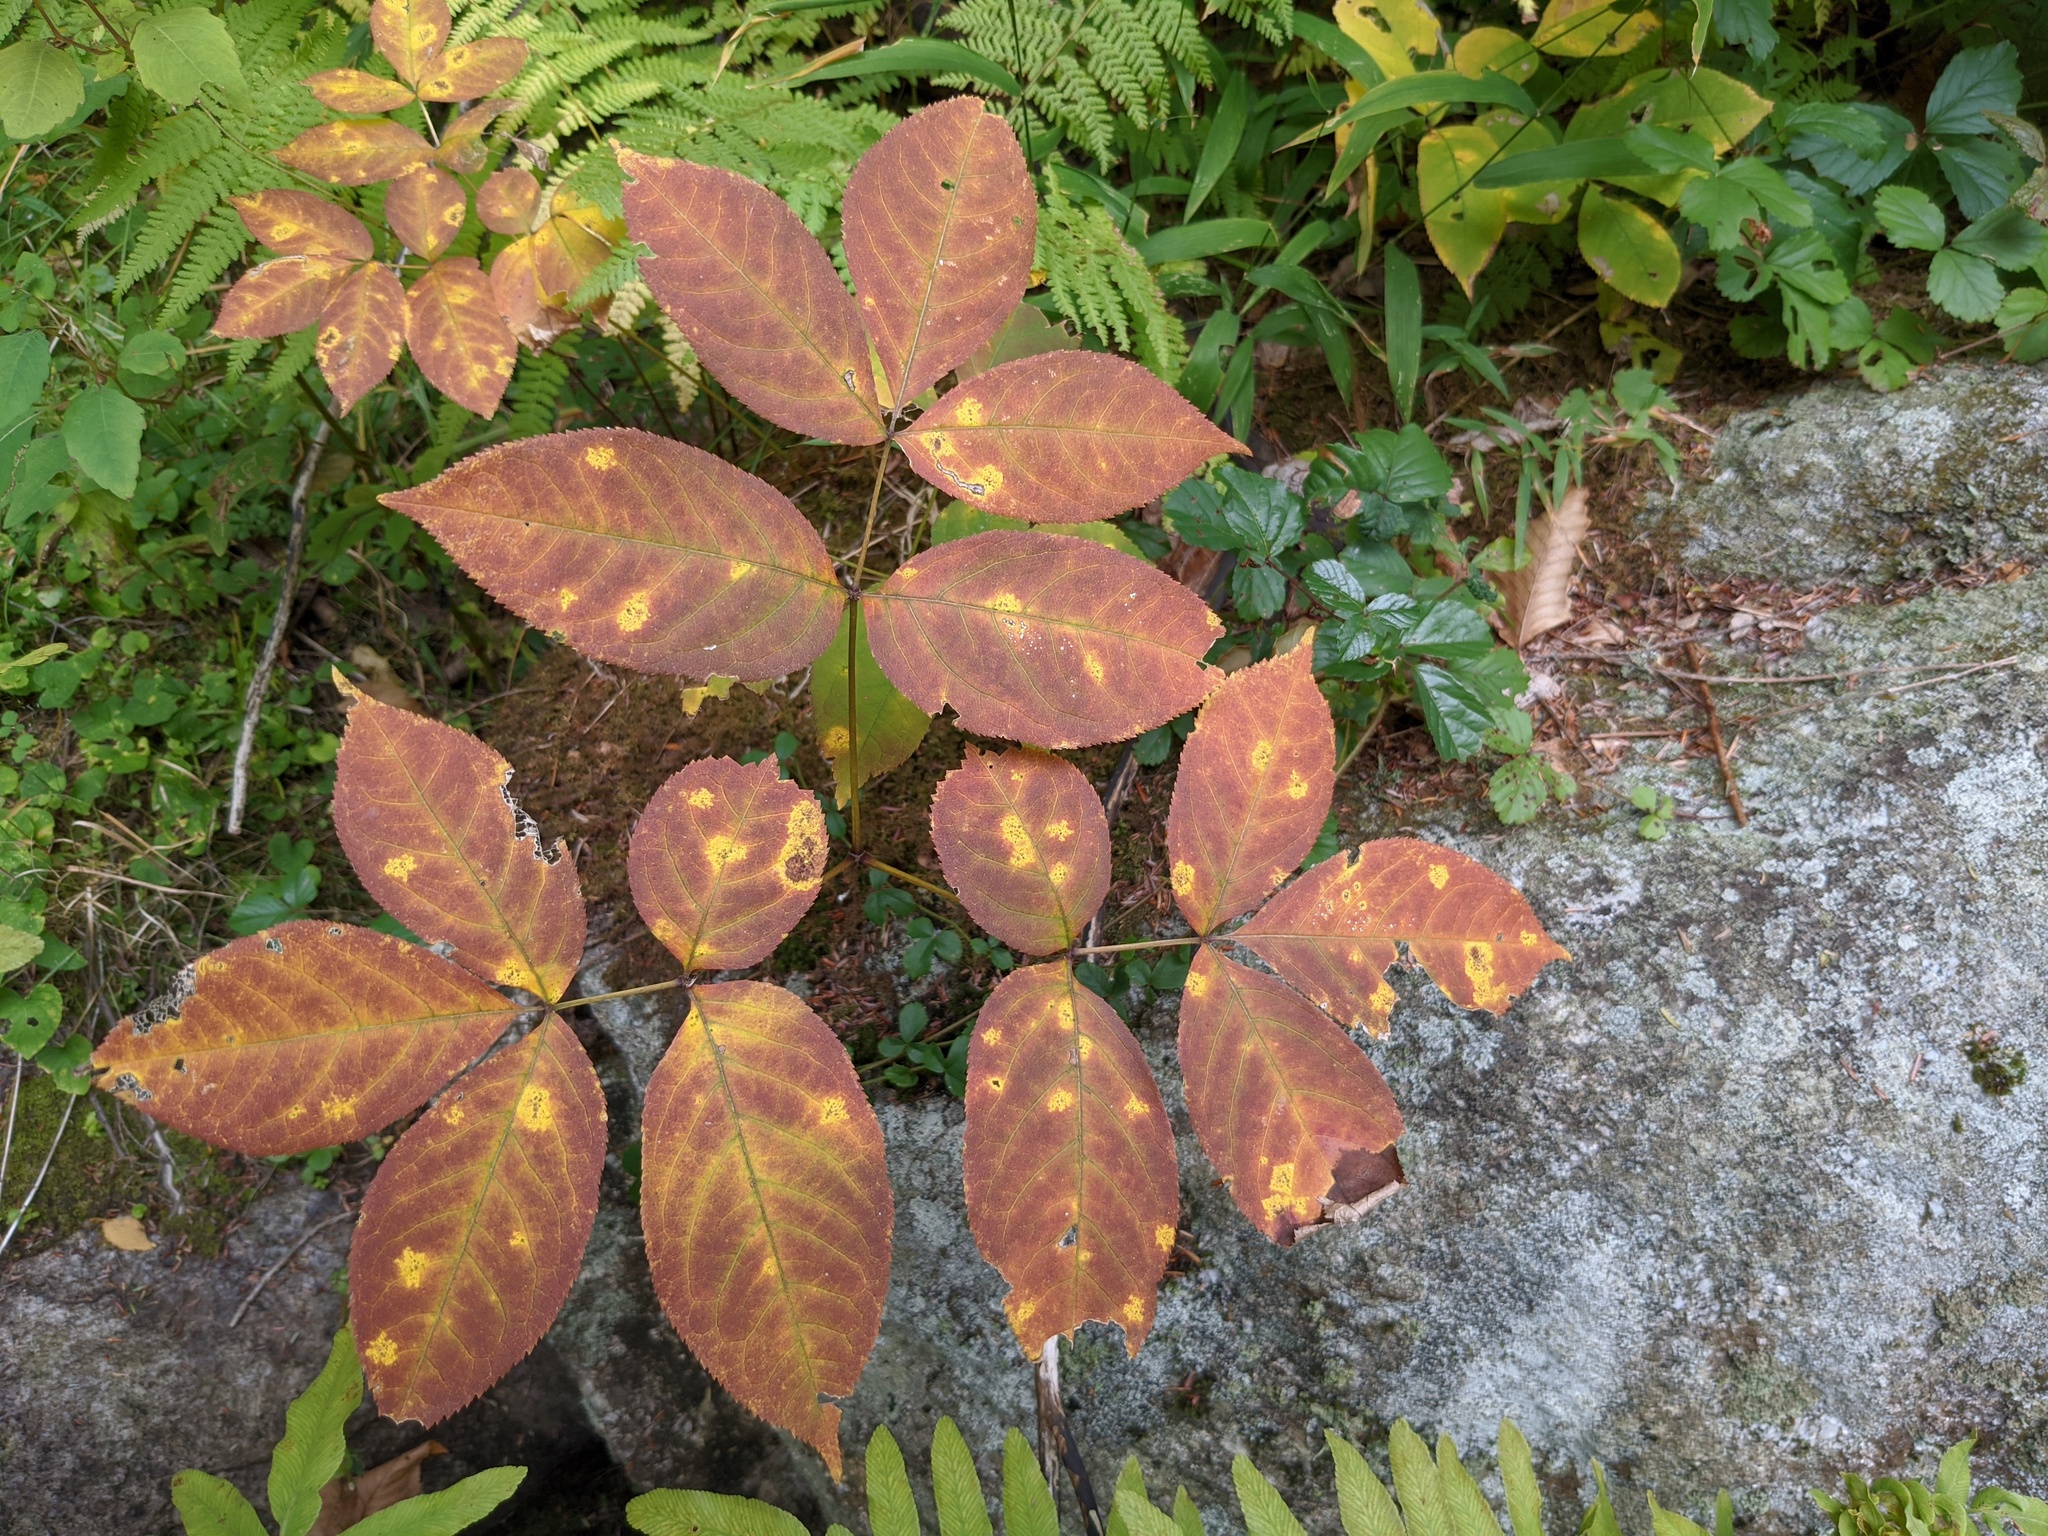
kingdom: Plantae
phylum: Tracheophyta
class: Magnoliopsida
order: Apiales
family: Araliaceae
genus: Aralia
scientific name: Aralia nudicaulis
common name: Wild sarsaparilla
